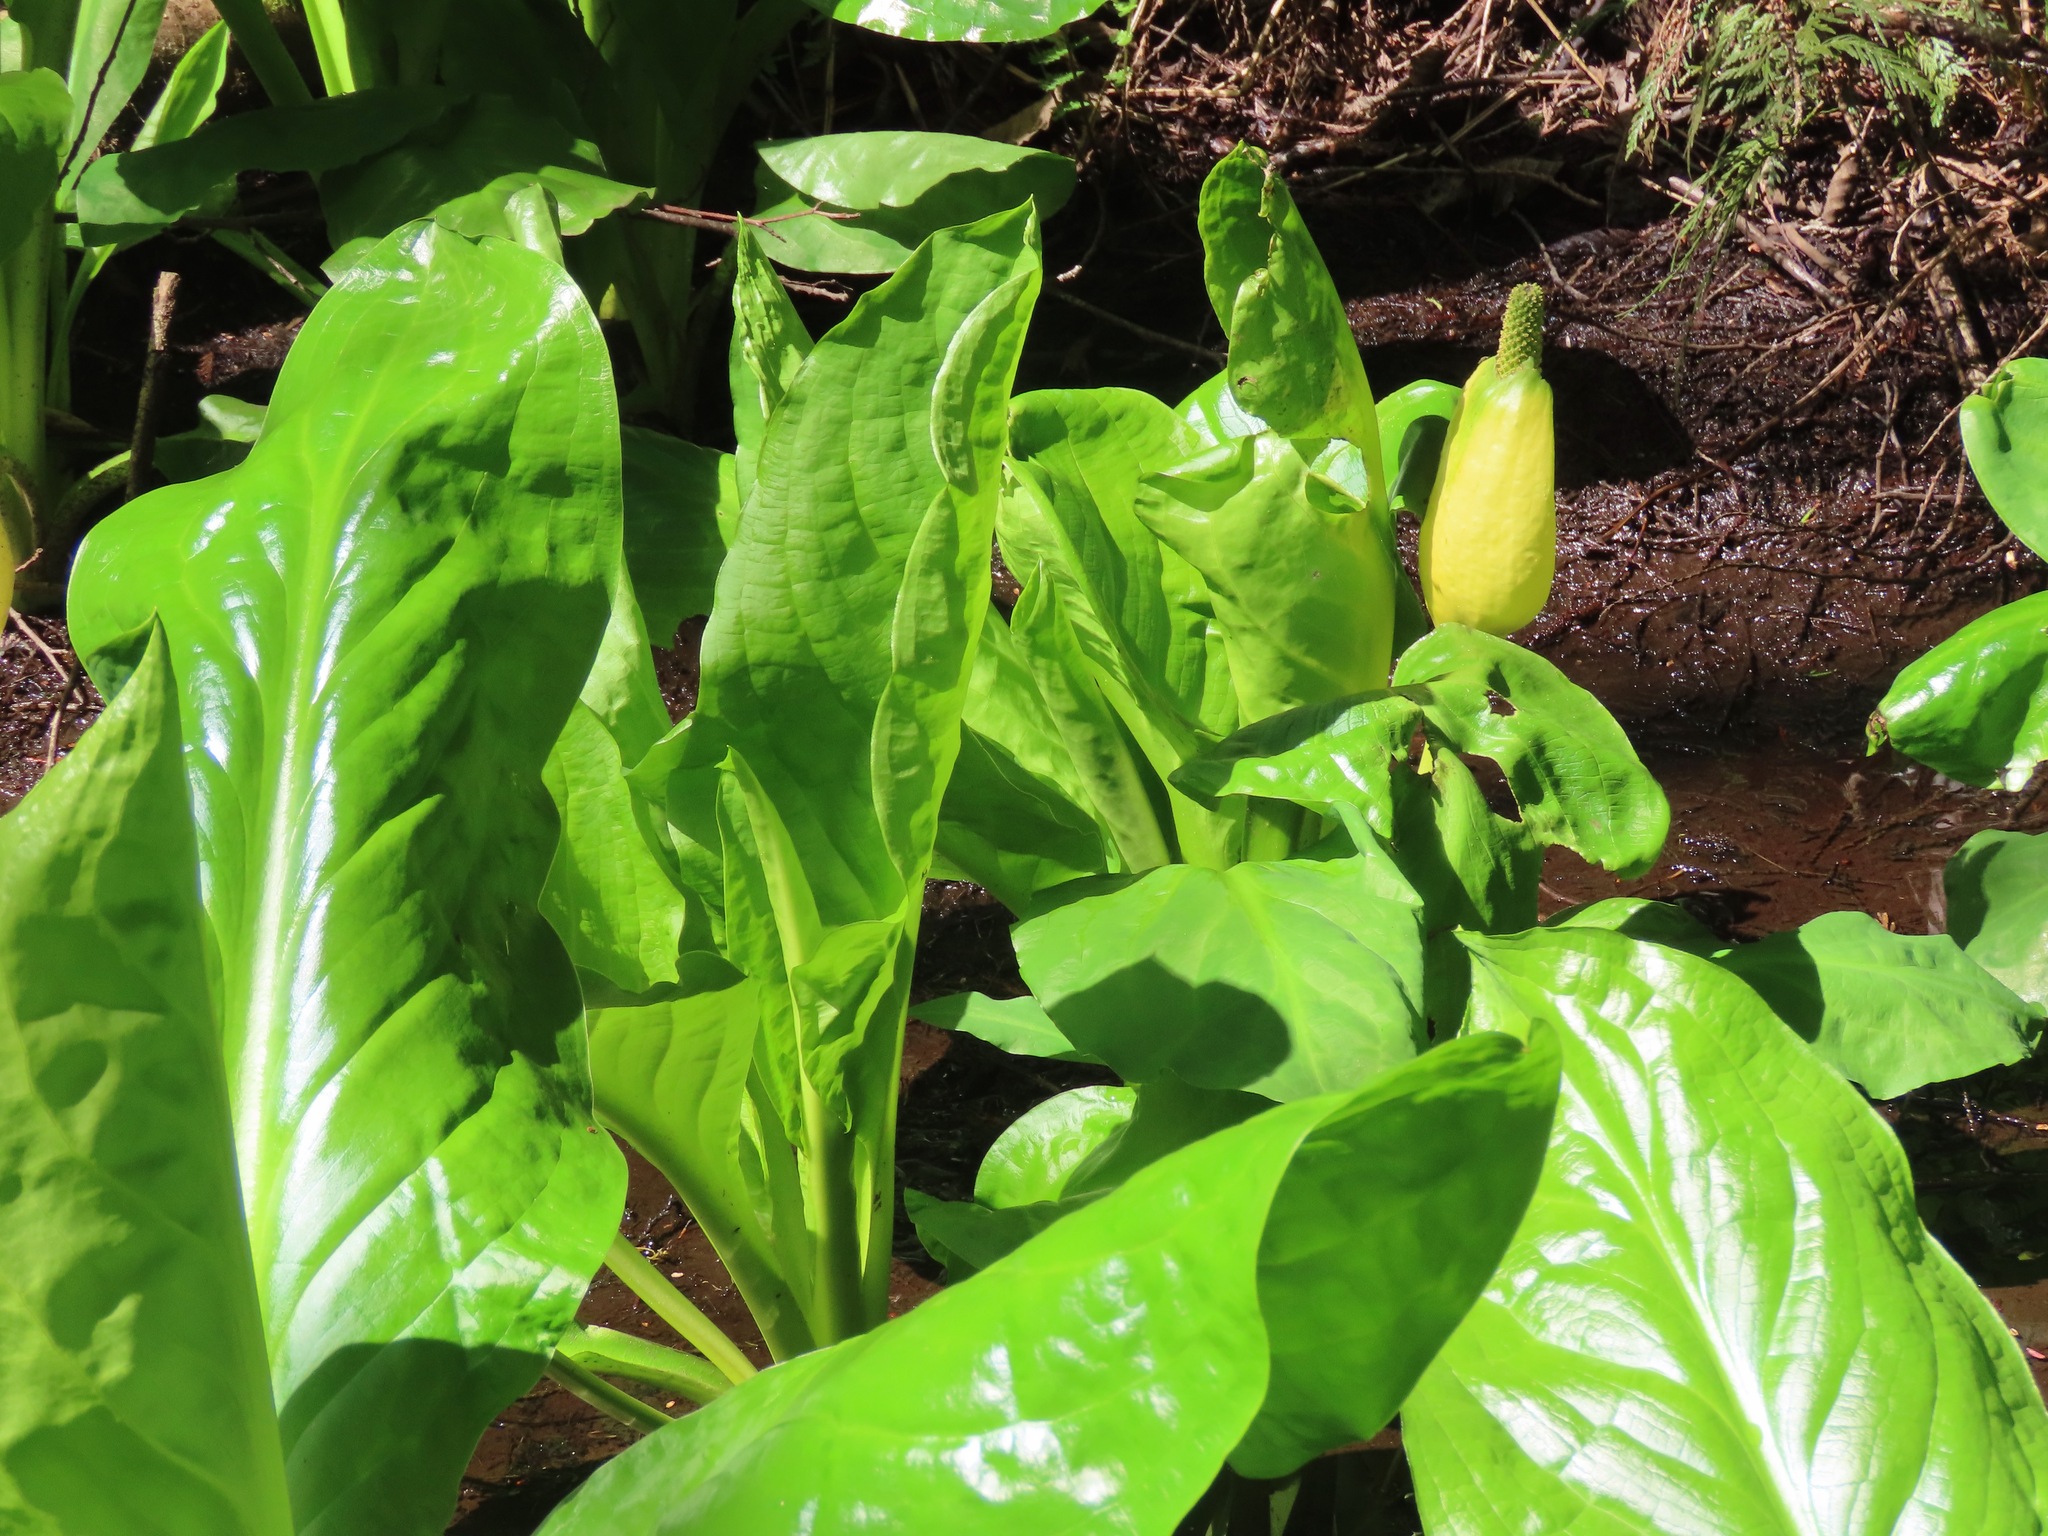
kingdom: Plantae
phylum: Tracheophyta
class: Liliopsida
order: Alismatales
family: Araceae
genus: Lysichiton
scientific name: Lysichiton americanus
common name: American skunk cabbage
